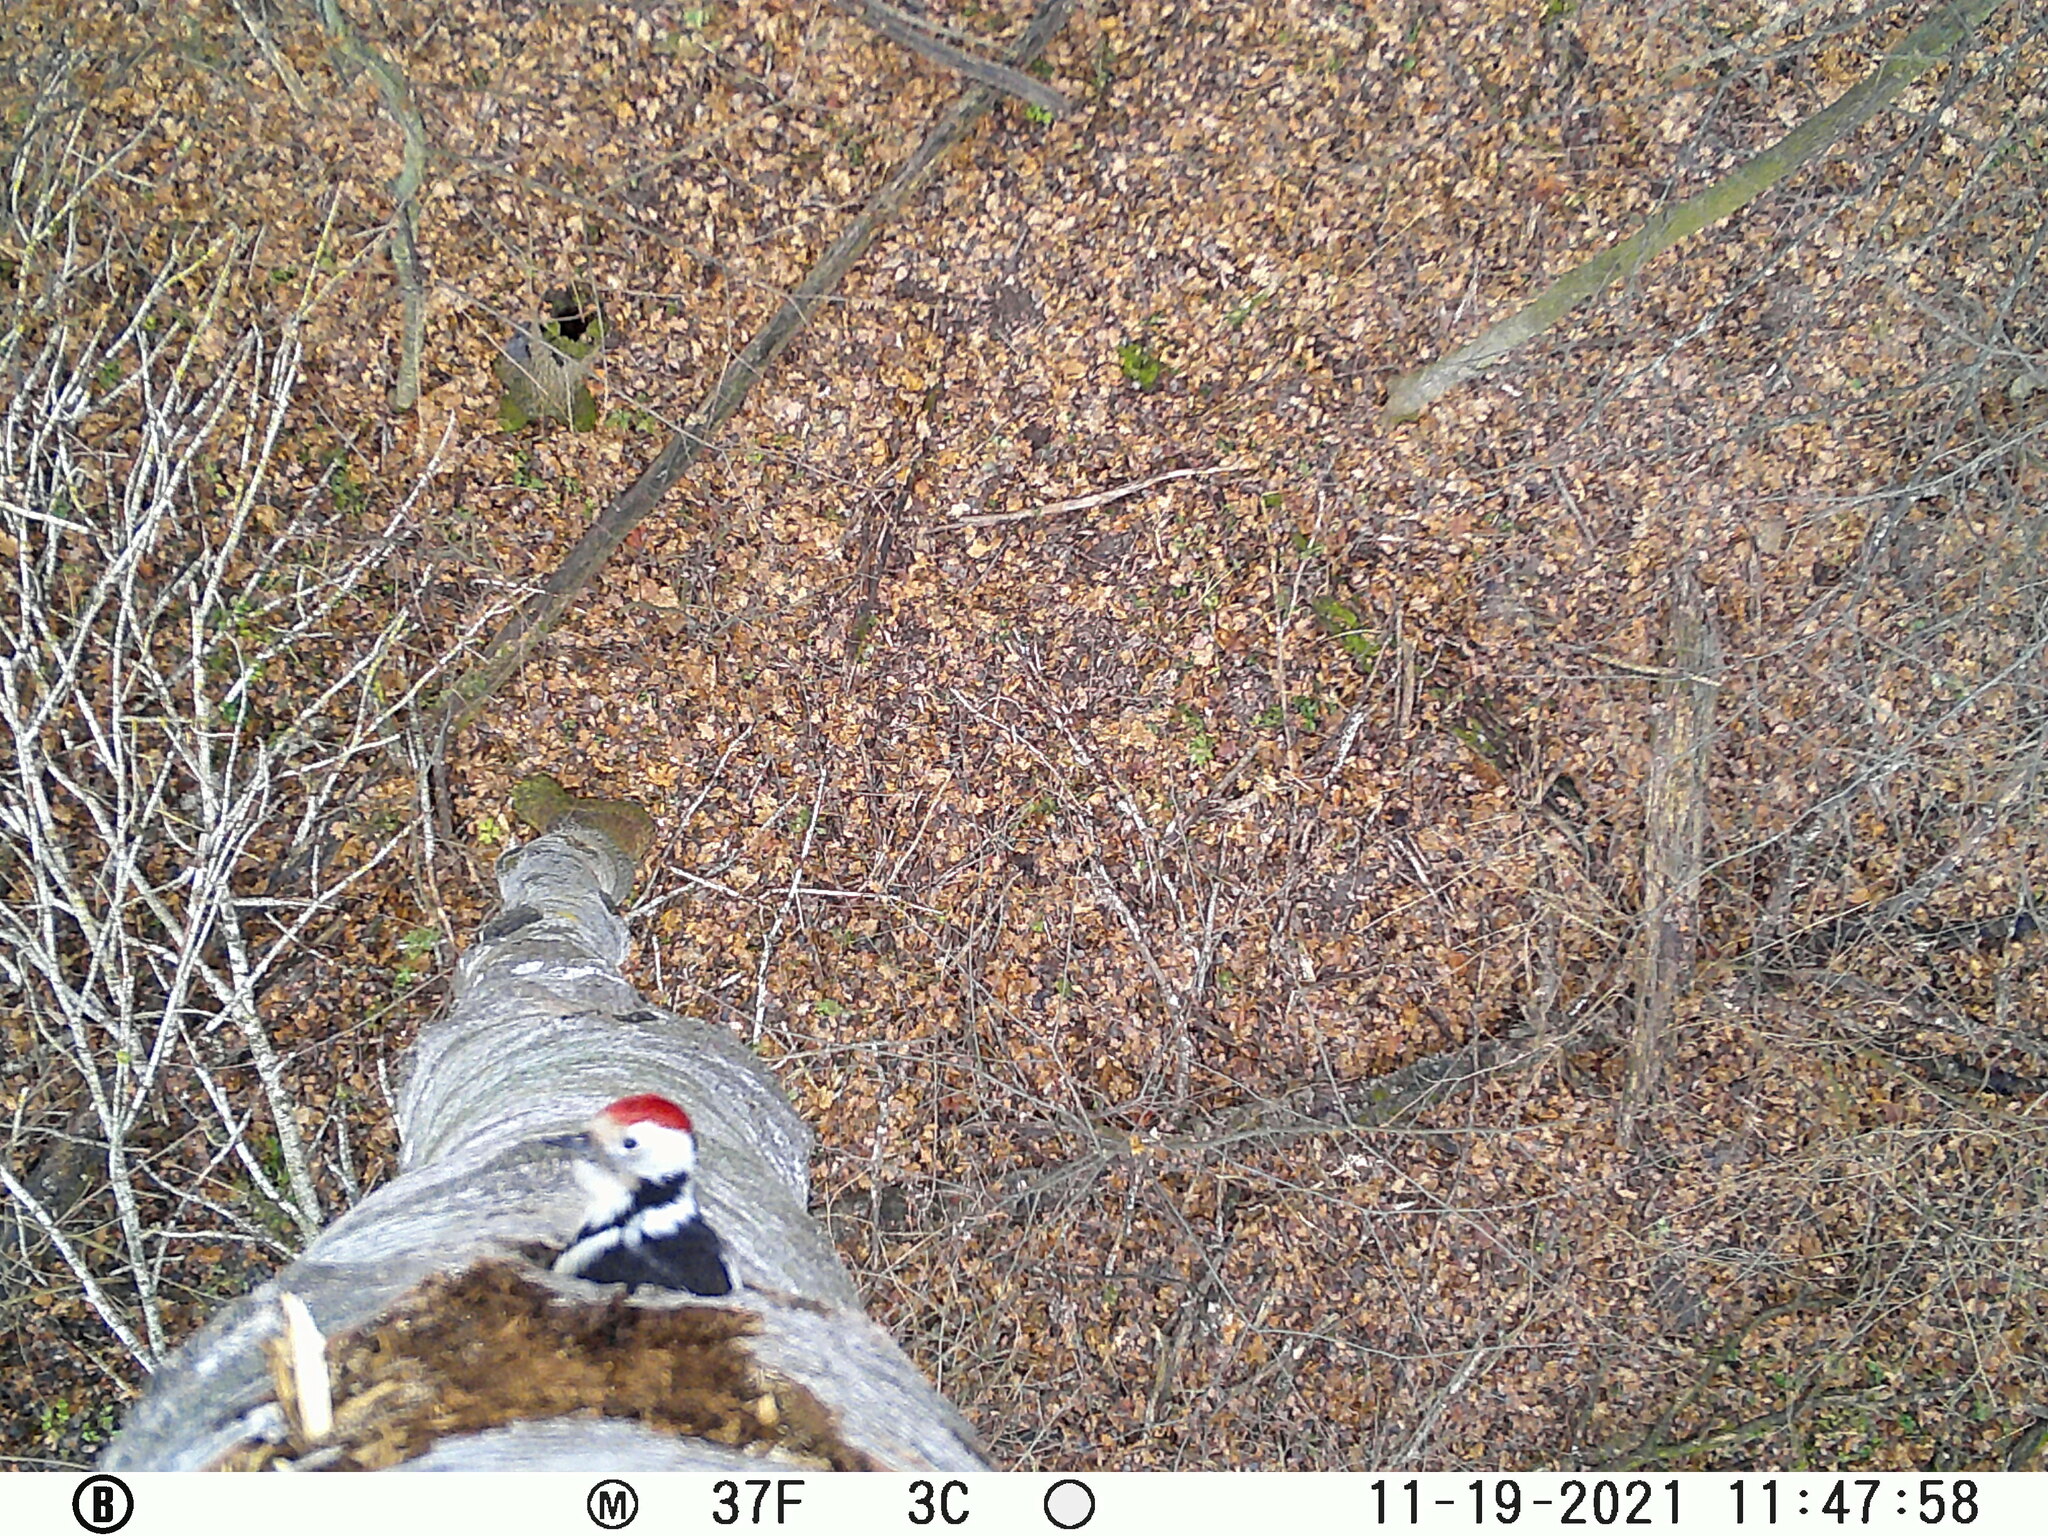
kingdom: Animalia
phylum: Chordata
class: Aves
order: Piciformes
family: Picidae
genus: Dendrocoptes
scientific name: Dendrocoptes medius
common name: Middle spotted woodpecker
